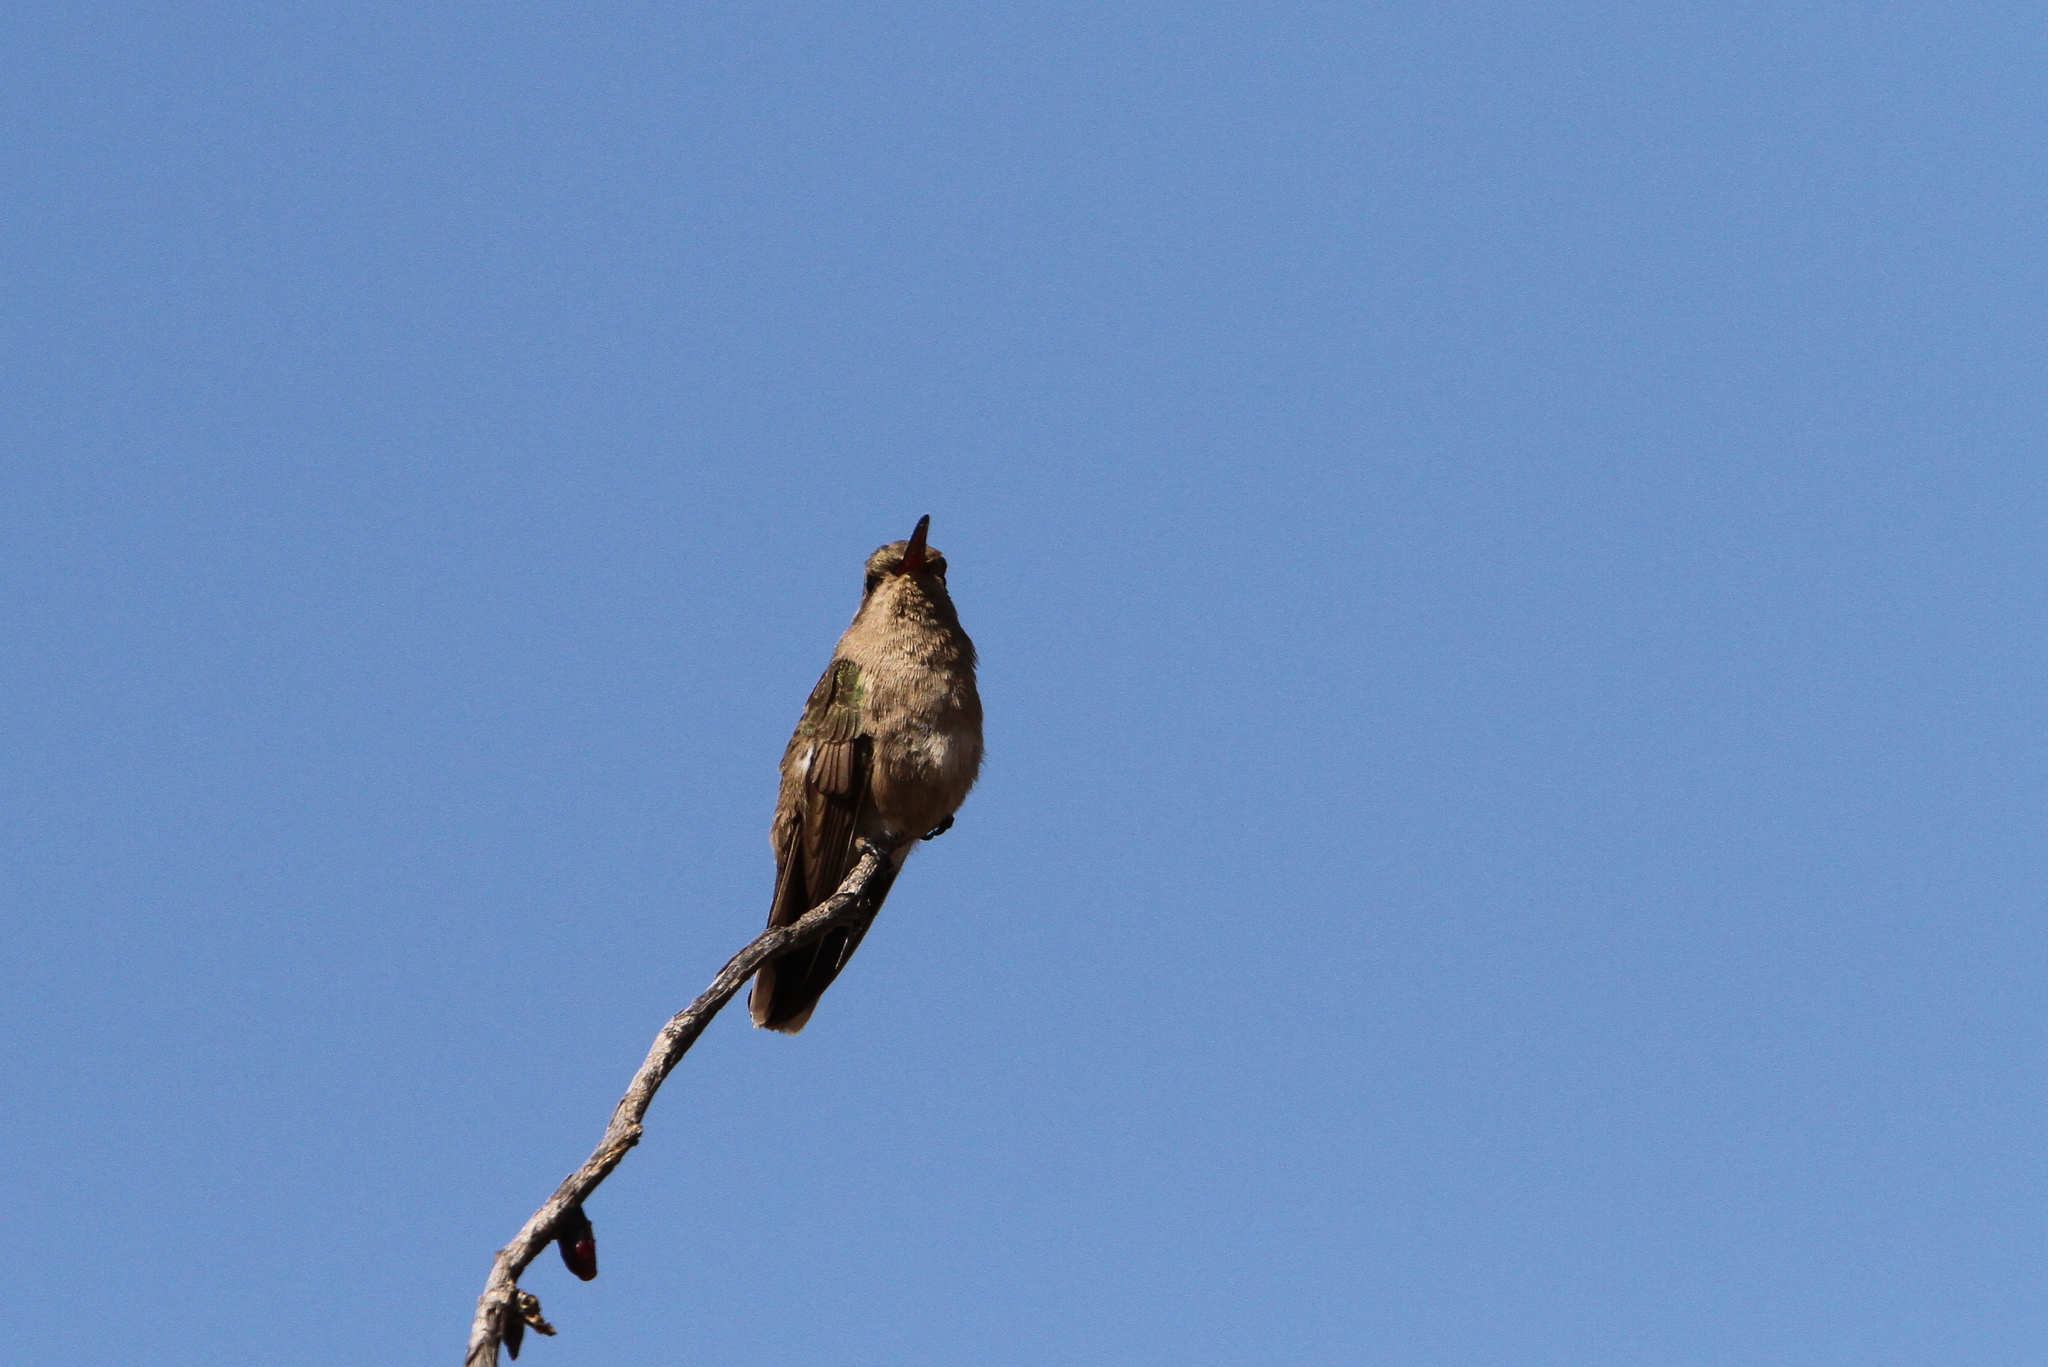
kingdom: Animalia
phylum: Chordata
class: Aves
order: Apodiformes
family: Trochilidae
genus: Phaeoptila
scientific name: Phaeoptila sordida
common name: Dusky hummingbird
